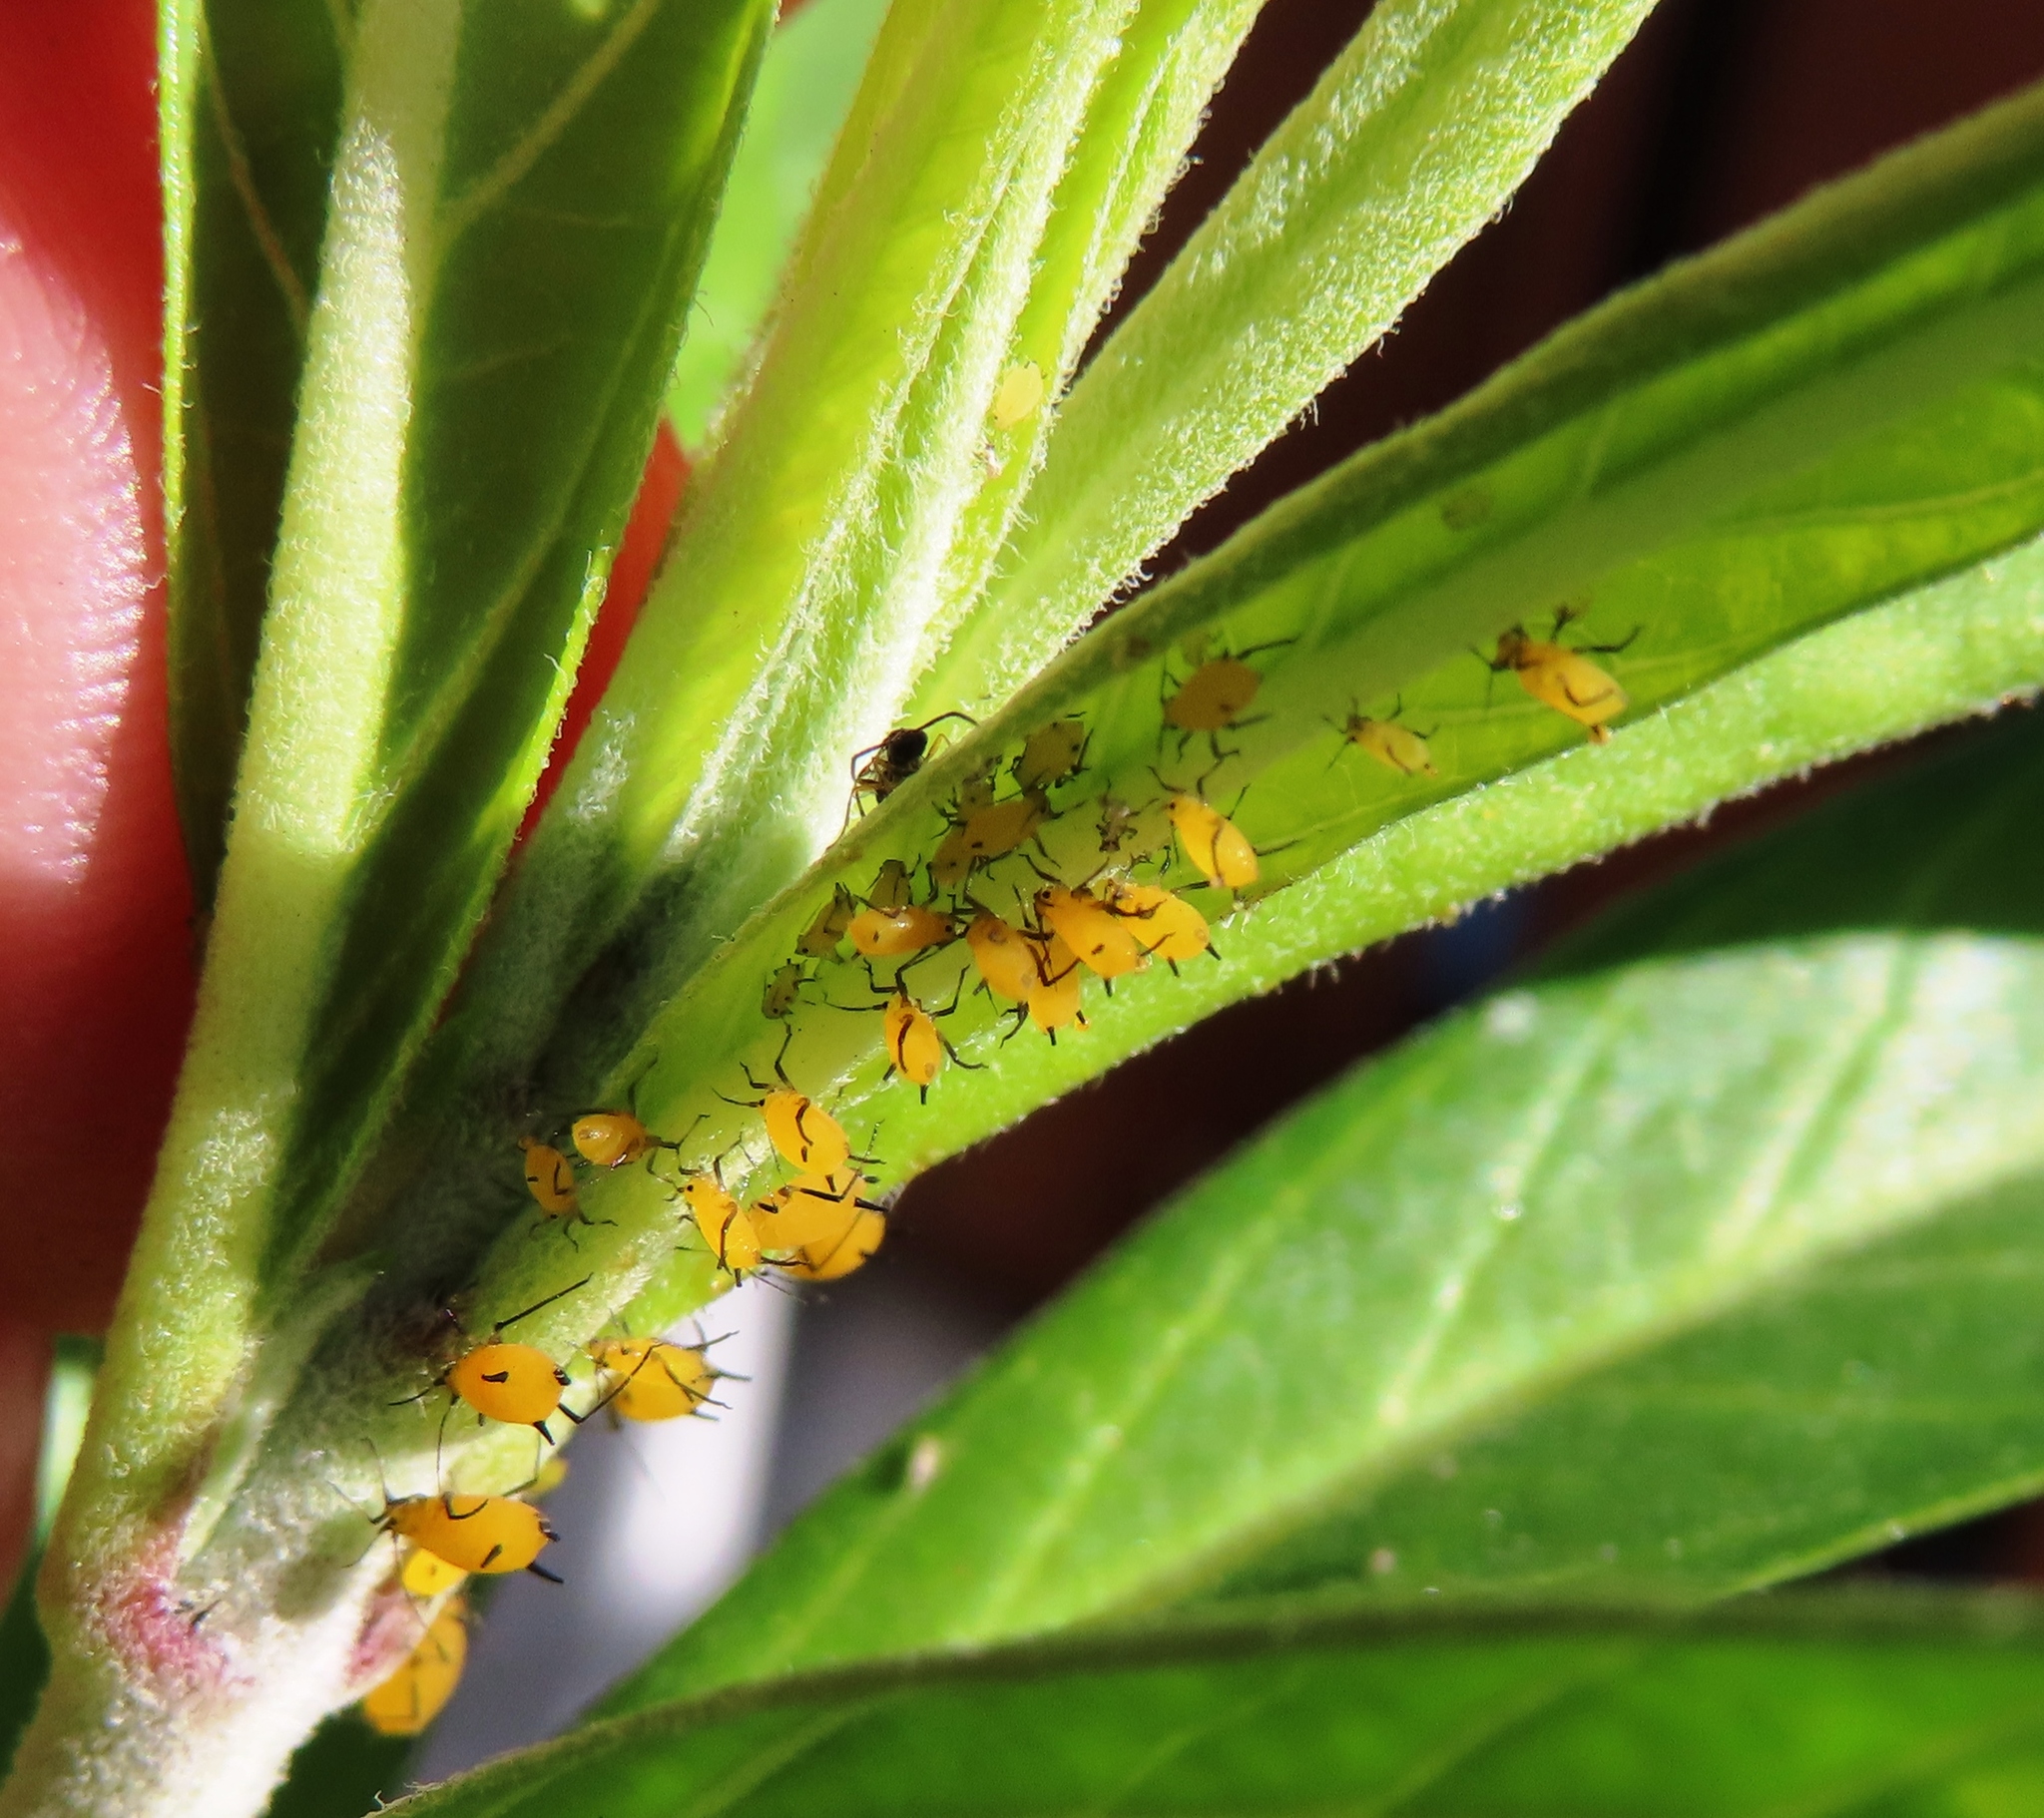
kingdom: Animalia
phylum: Arthropoda
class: Insecta
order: Hemiptera
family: Aphididae
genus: Aphis
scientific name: Aphis nerii
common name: Oleander aphid
